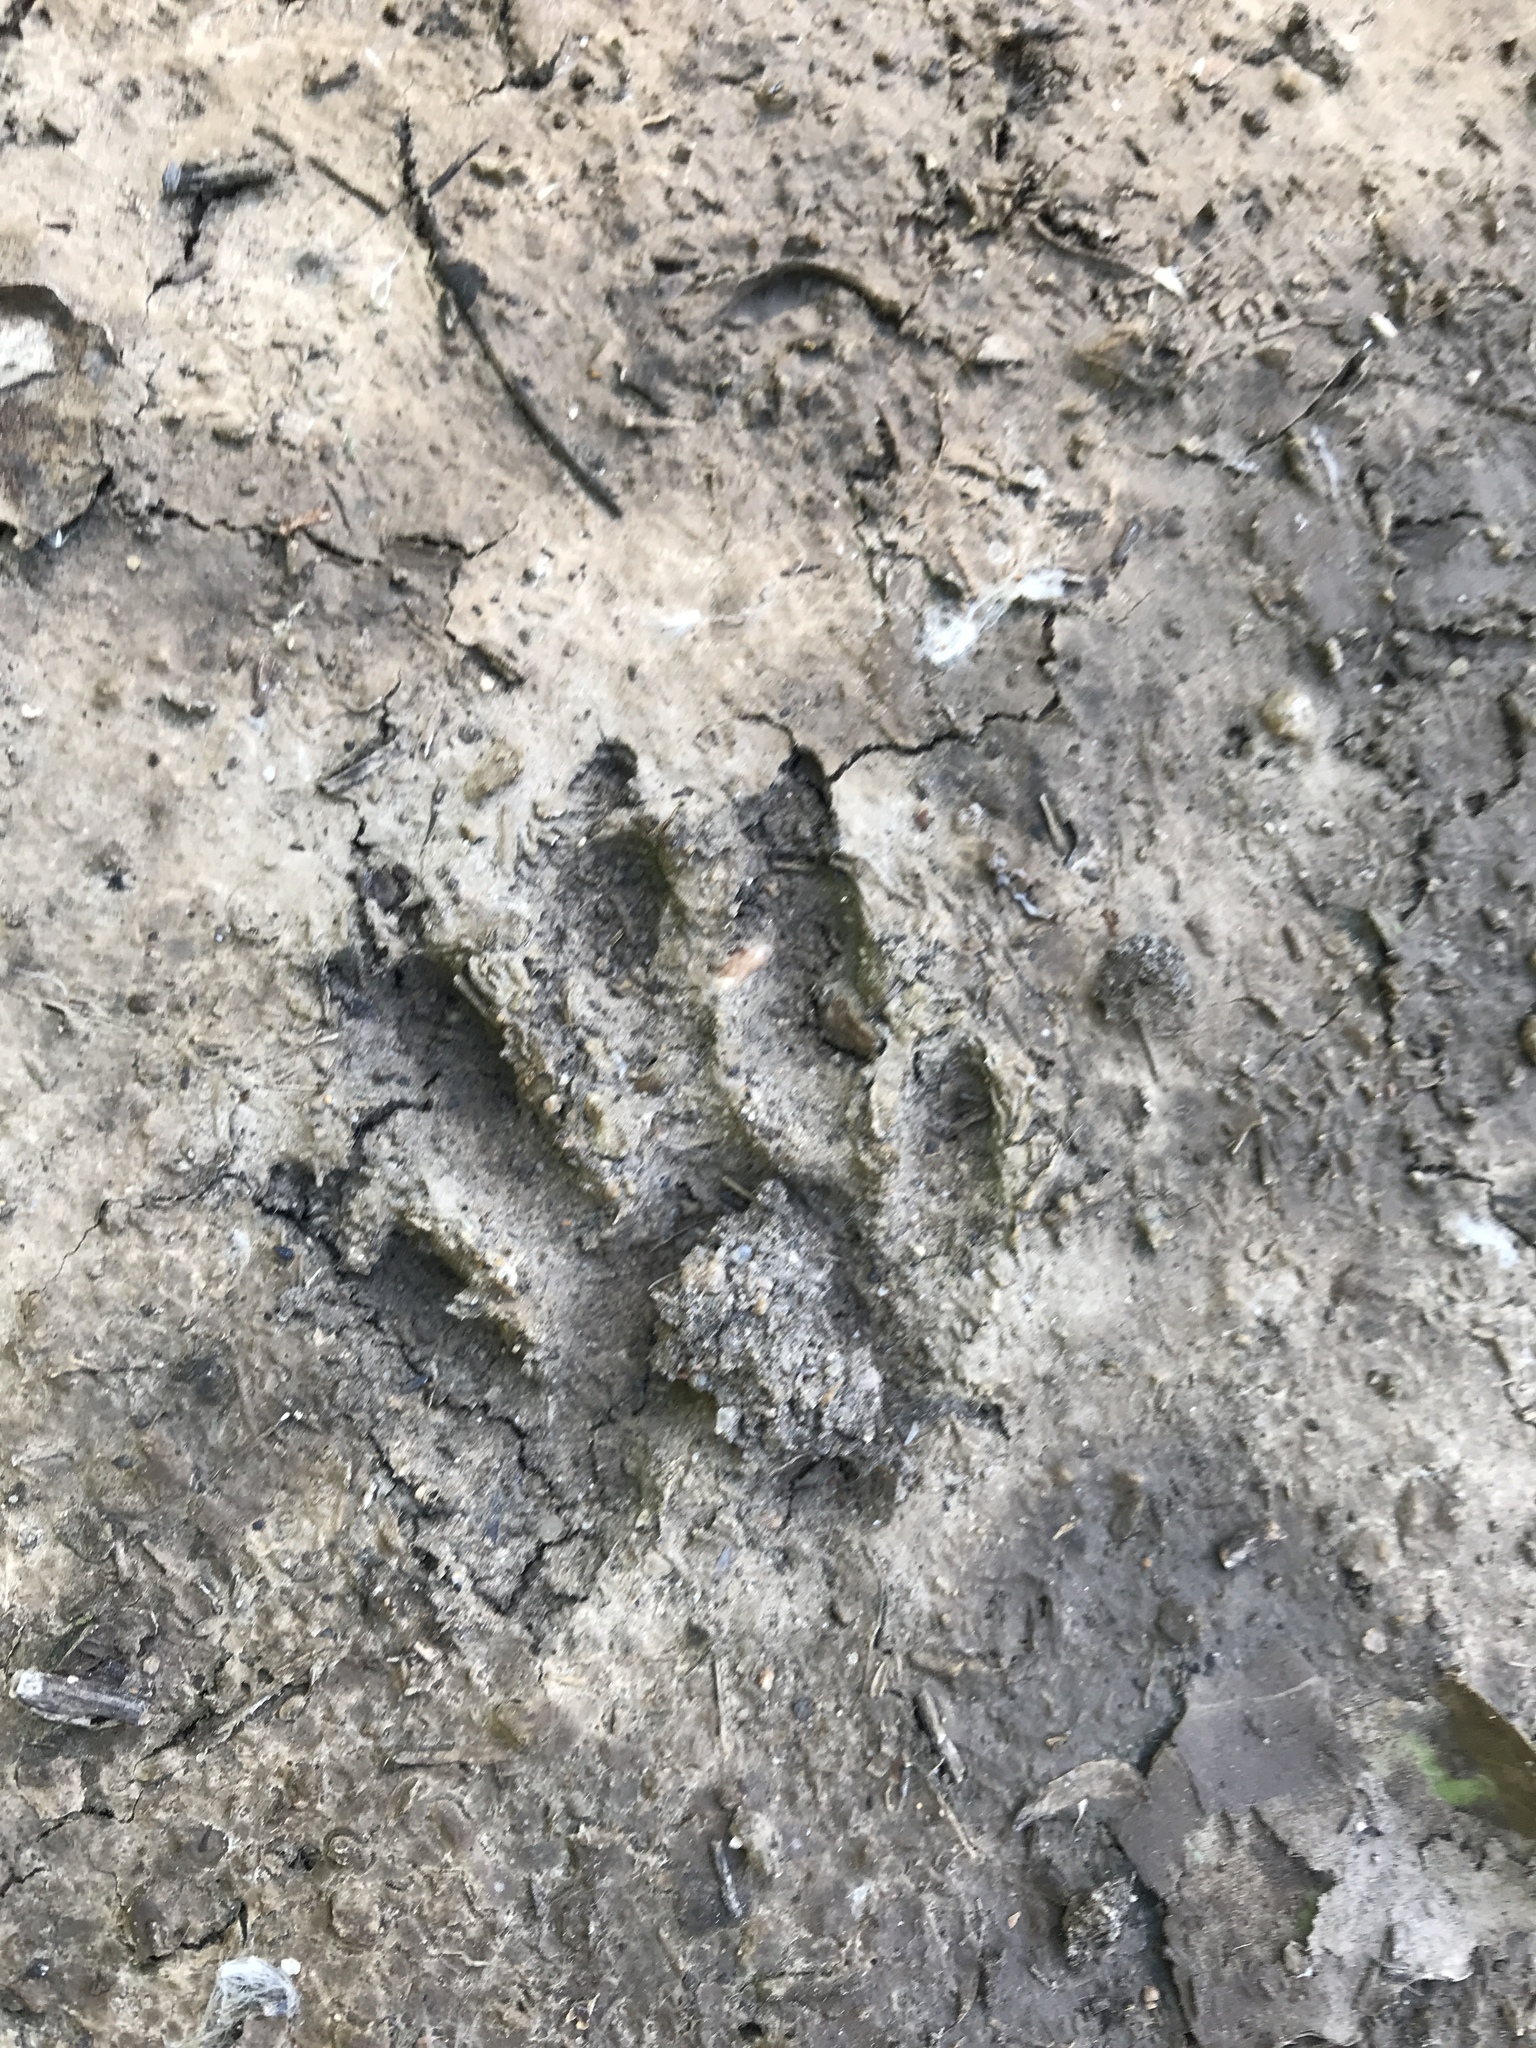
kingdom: Animalia
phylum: Chordata
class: Mammalia
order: Carnivora
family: Procyonidae
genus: Procyon
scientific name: Procyon lotor
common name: Raccoon
